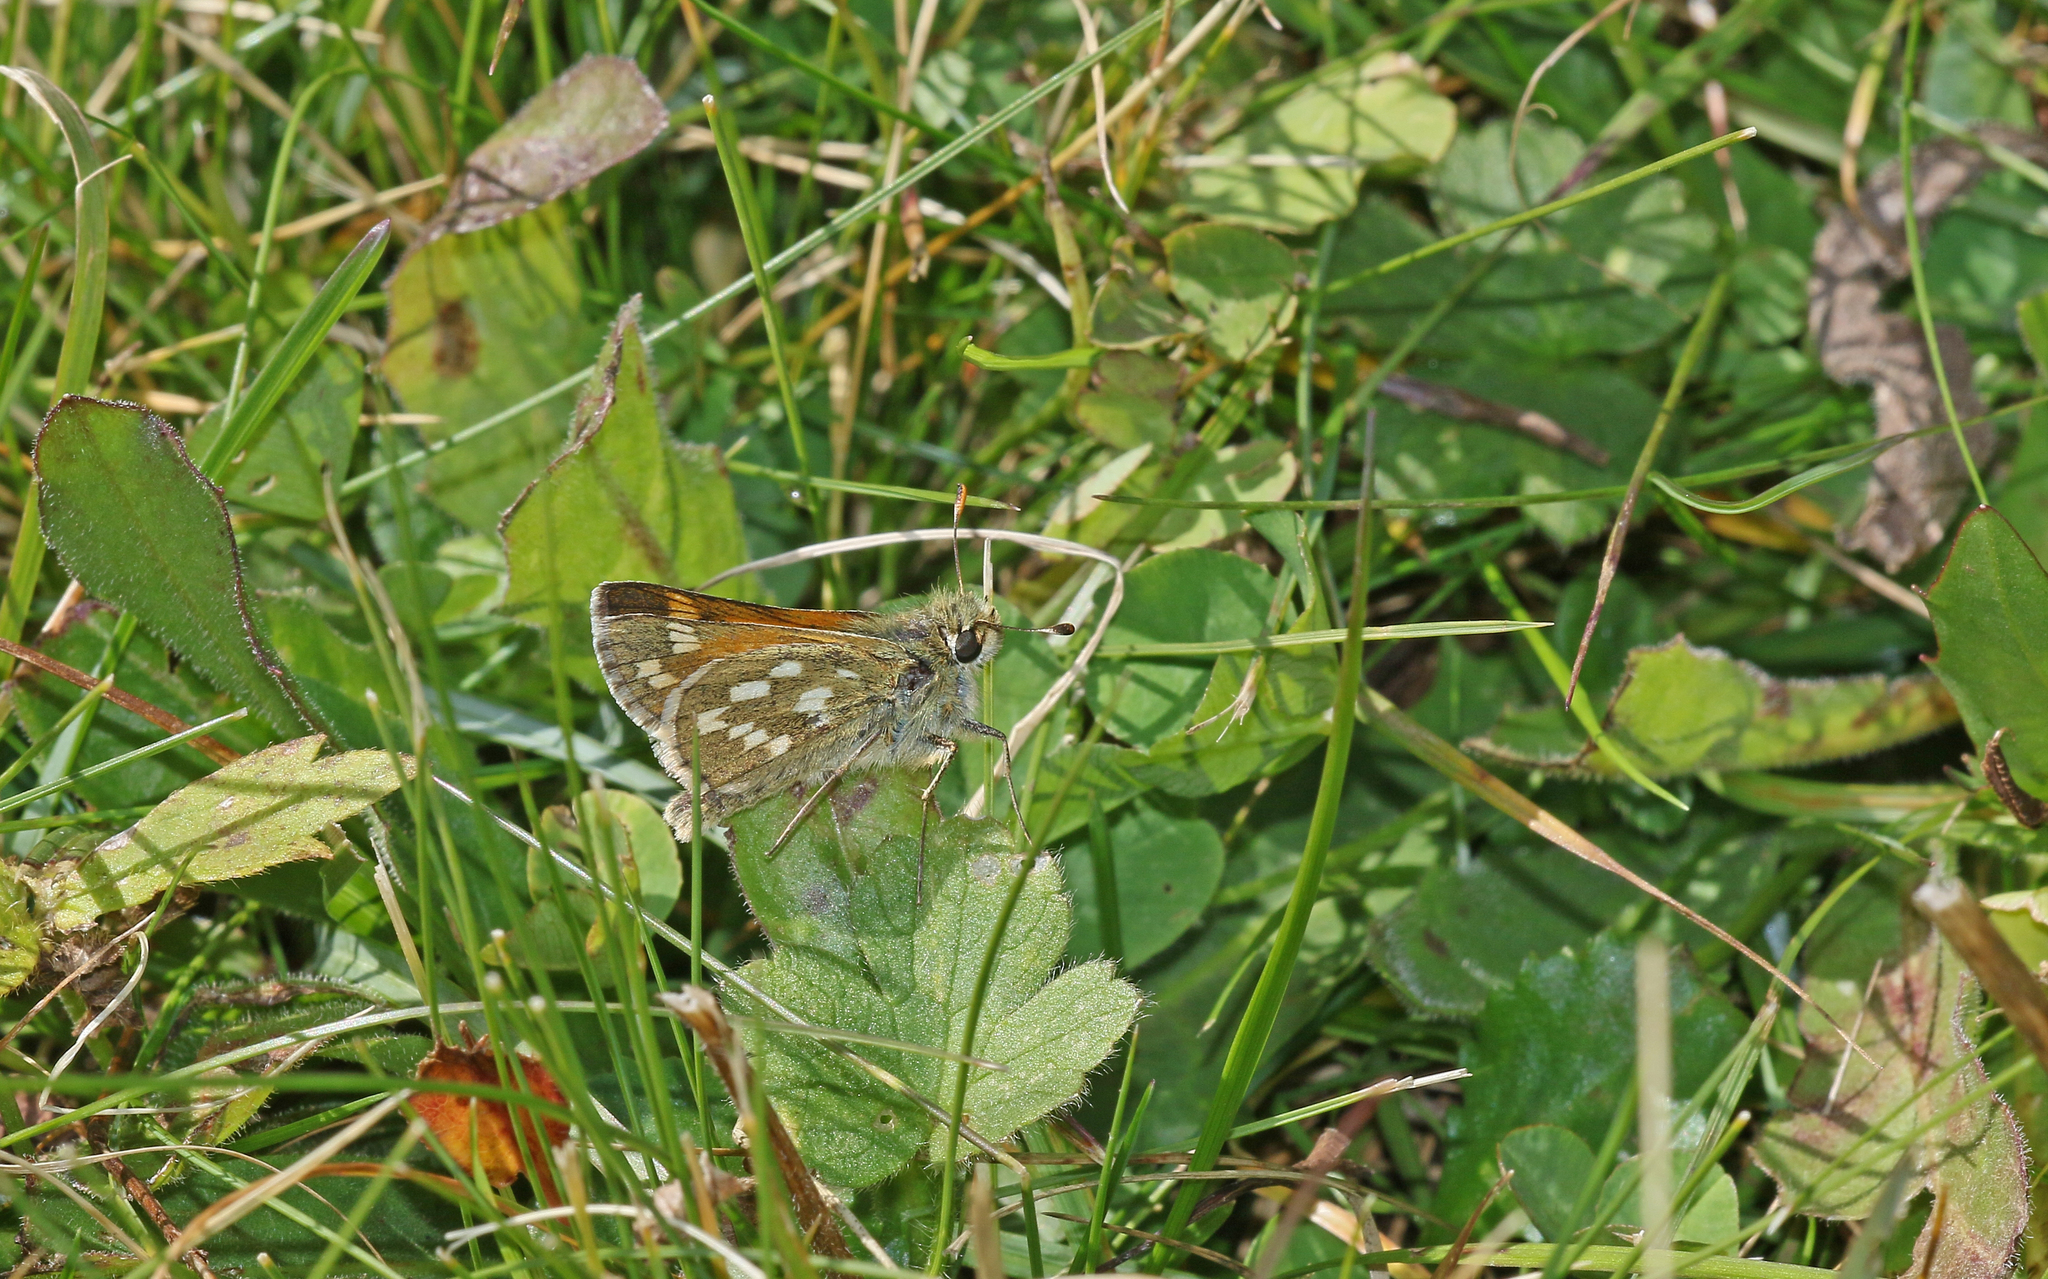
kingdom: Animalia
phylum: Arthropoda
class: Insecta
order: Lepidoptera
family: Hesperiidae
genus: Hesperia
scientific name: Hesperia comma
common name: Common branded skipper
